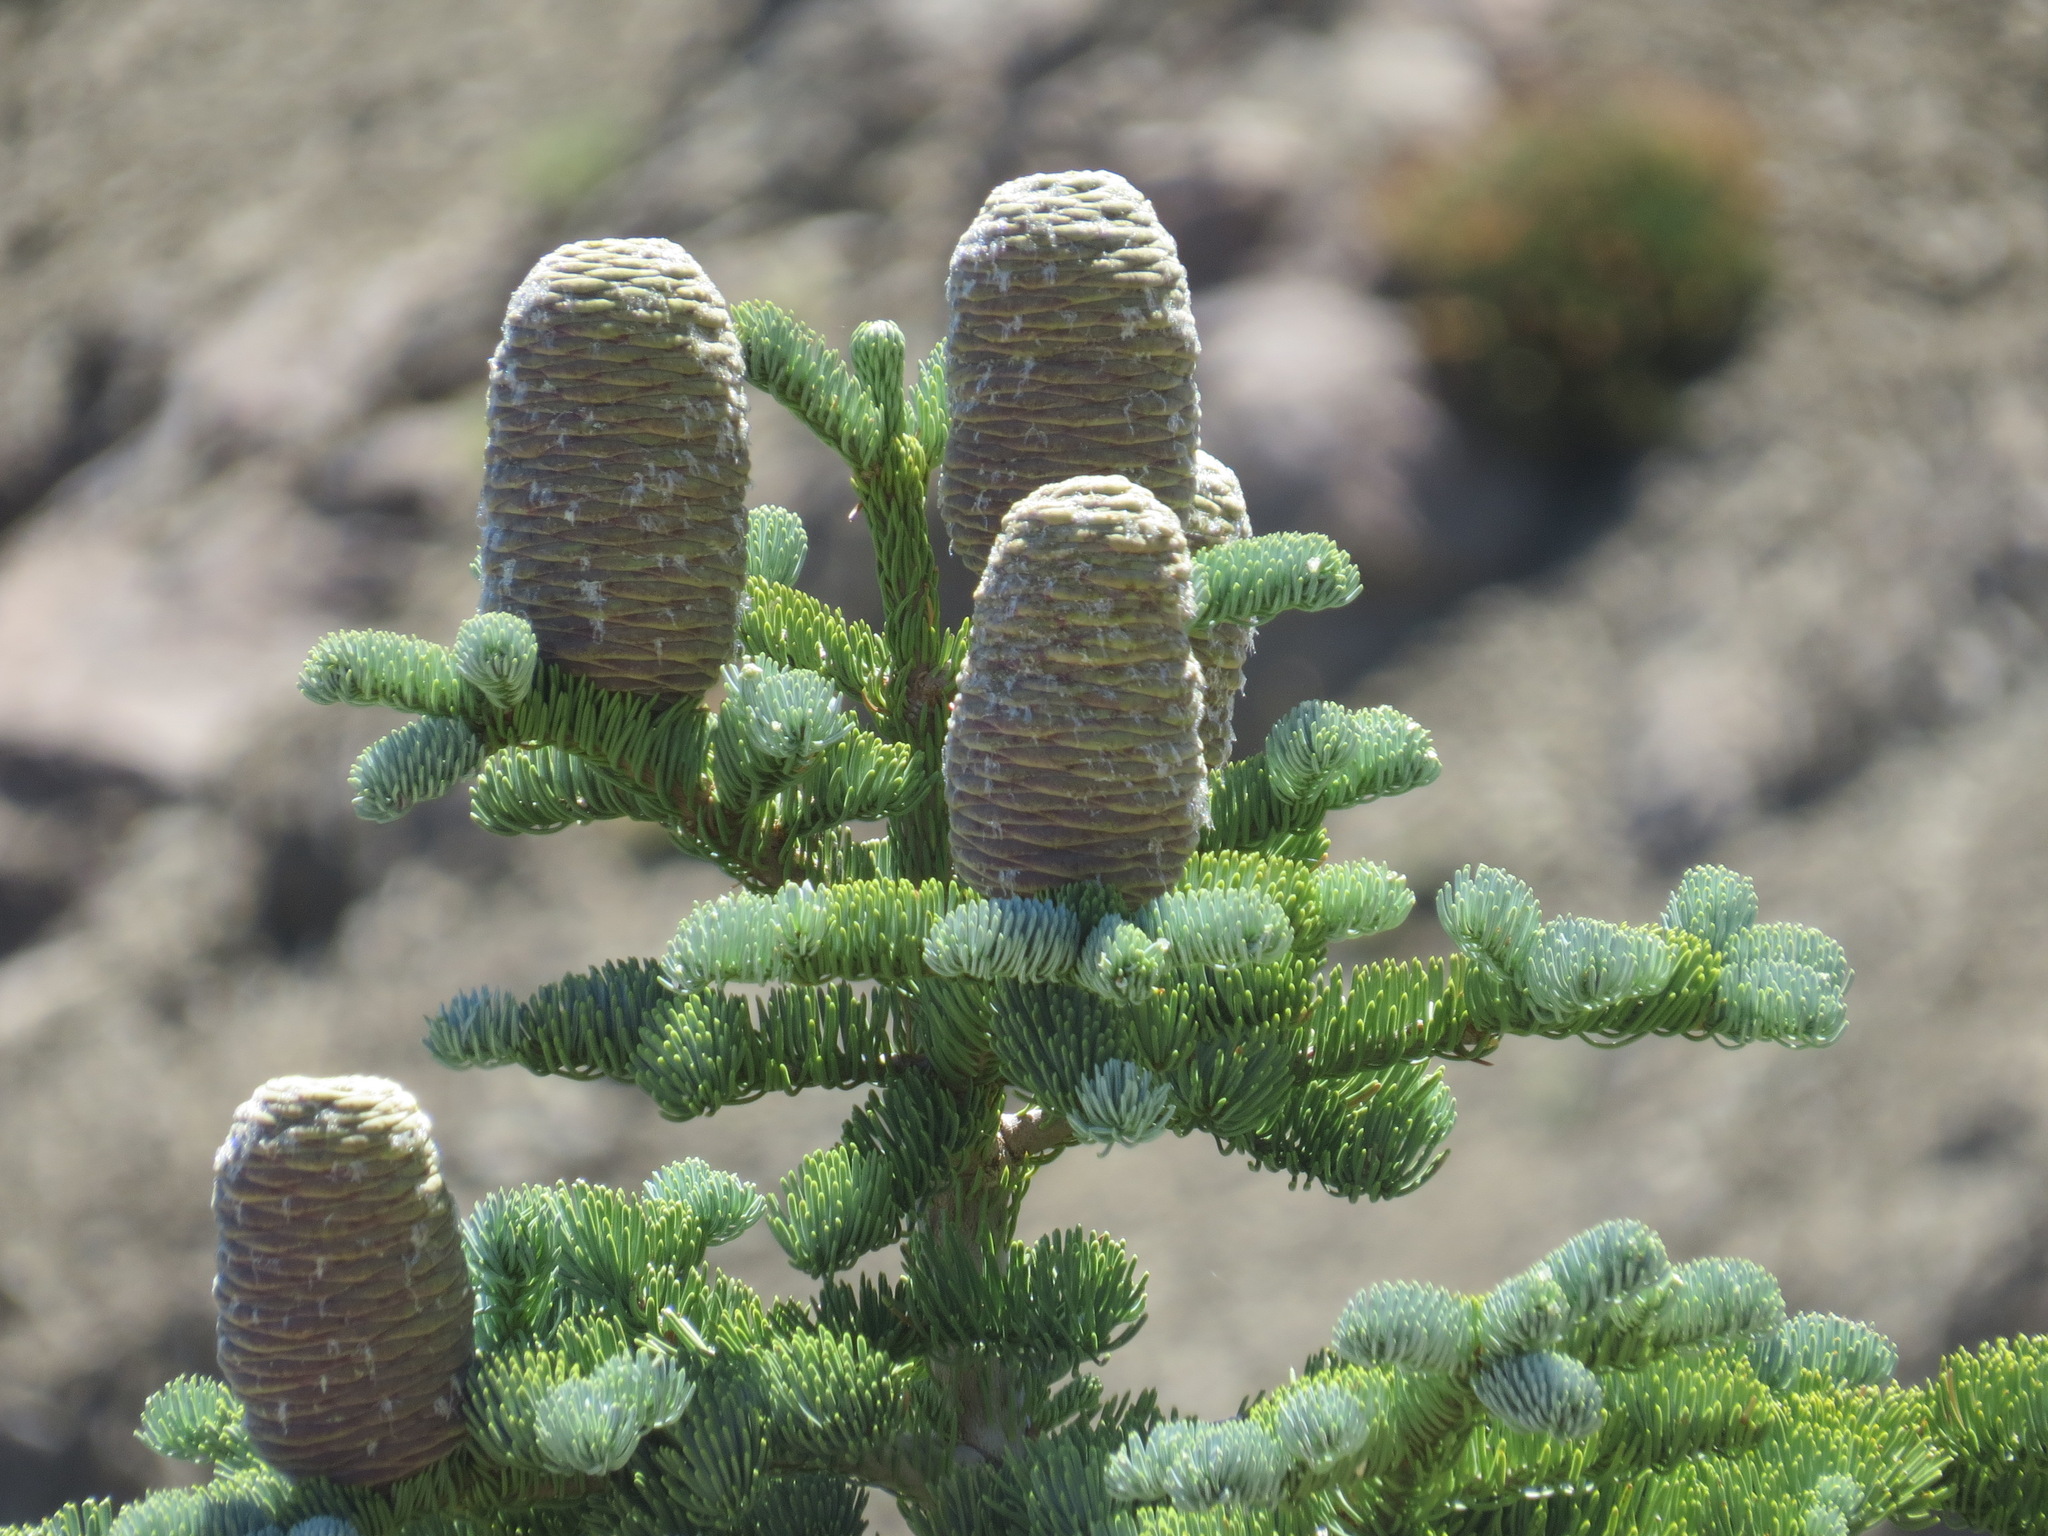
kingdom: Plantae
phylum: Tracheophyta
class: Pinopsida
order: Pinales
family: Pinaceae
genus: Abies
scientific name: Abies magnifica bis
